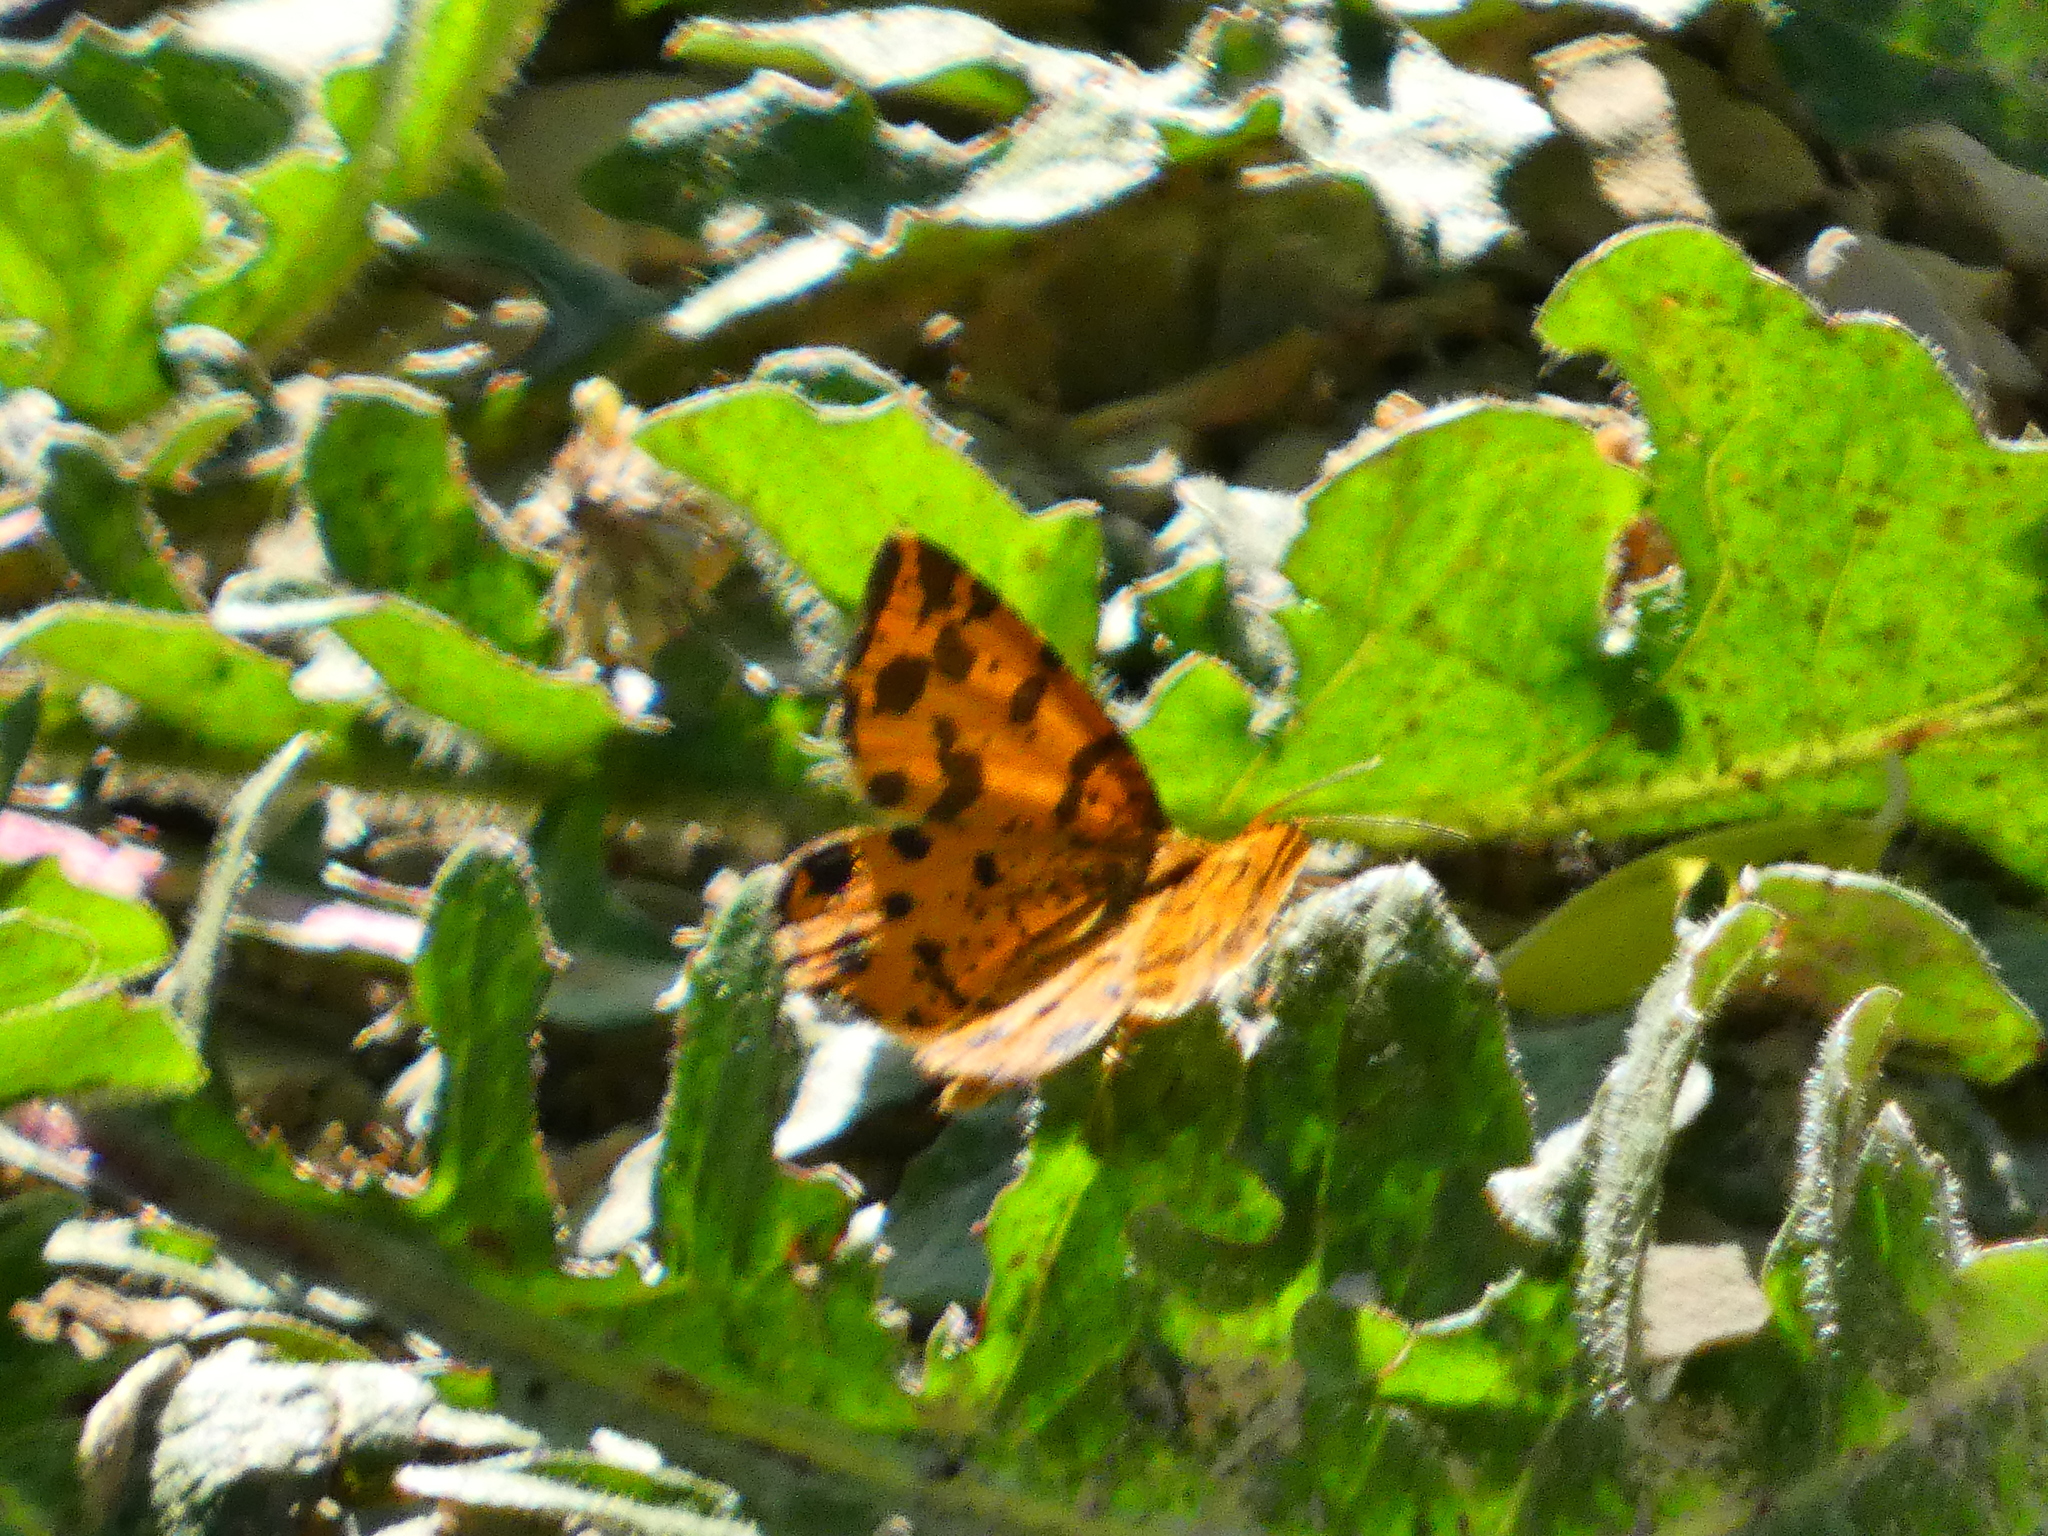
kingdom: Animalia
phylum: Arthropoda
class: Insecta
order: Lepidoptera
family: Geometridae
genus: Pseudopanthera
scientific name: Pseudopanthera macularia
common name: Speckled yellow
